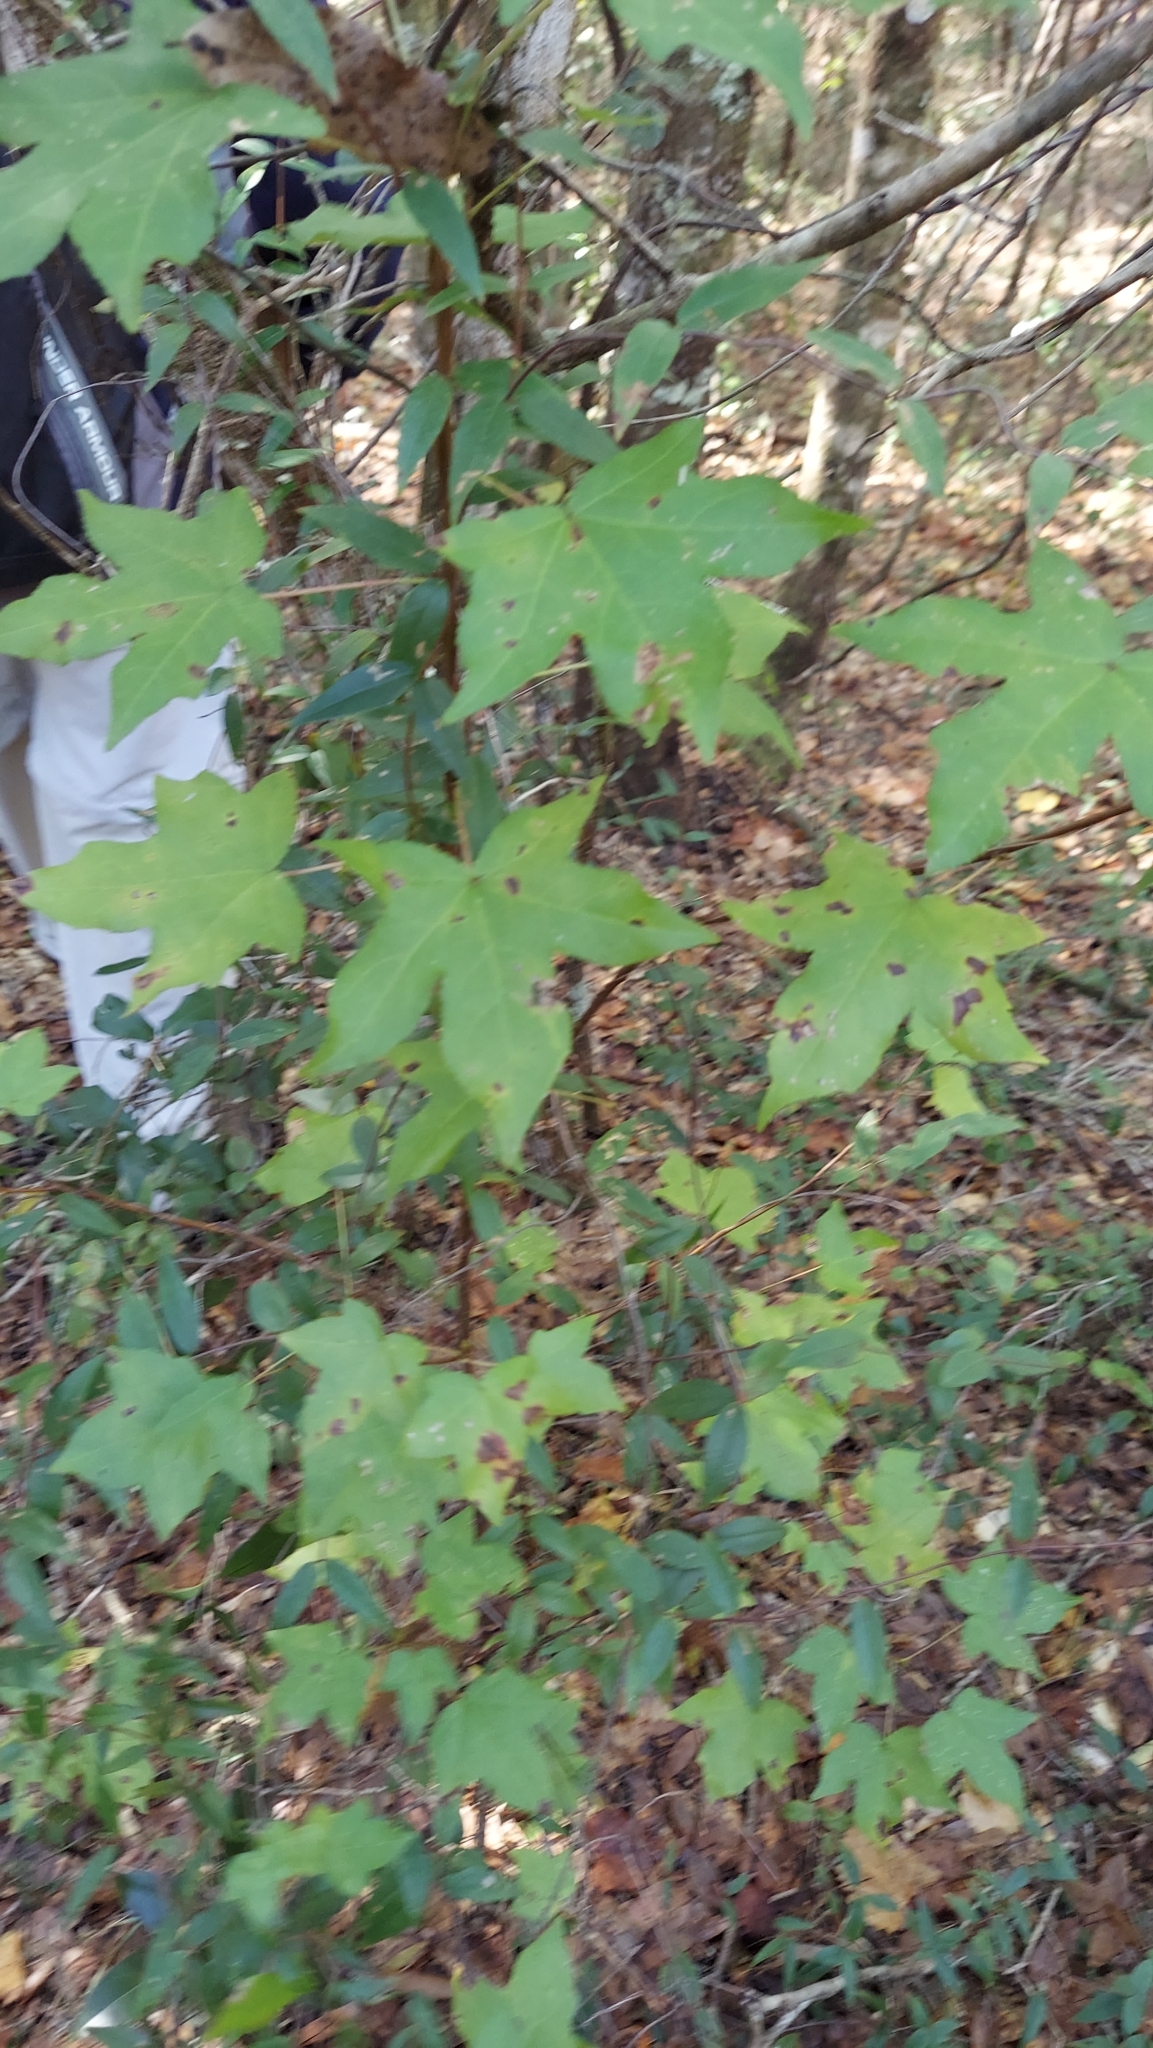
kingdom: Plantae
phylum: Tracheophyta
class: Magnoliopsida
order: Saxifragales
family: Altingiaceae
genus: Liquidambar
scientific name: Liquidambar styraciflua
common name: Sweet gum
